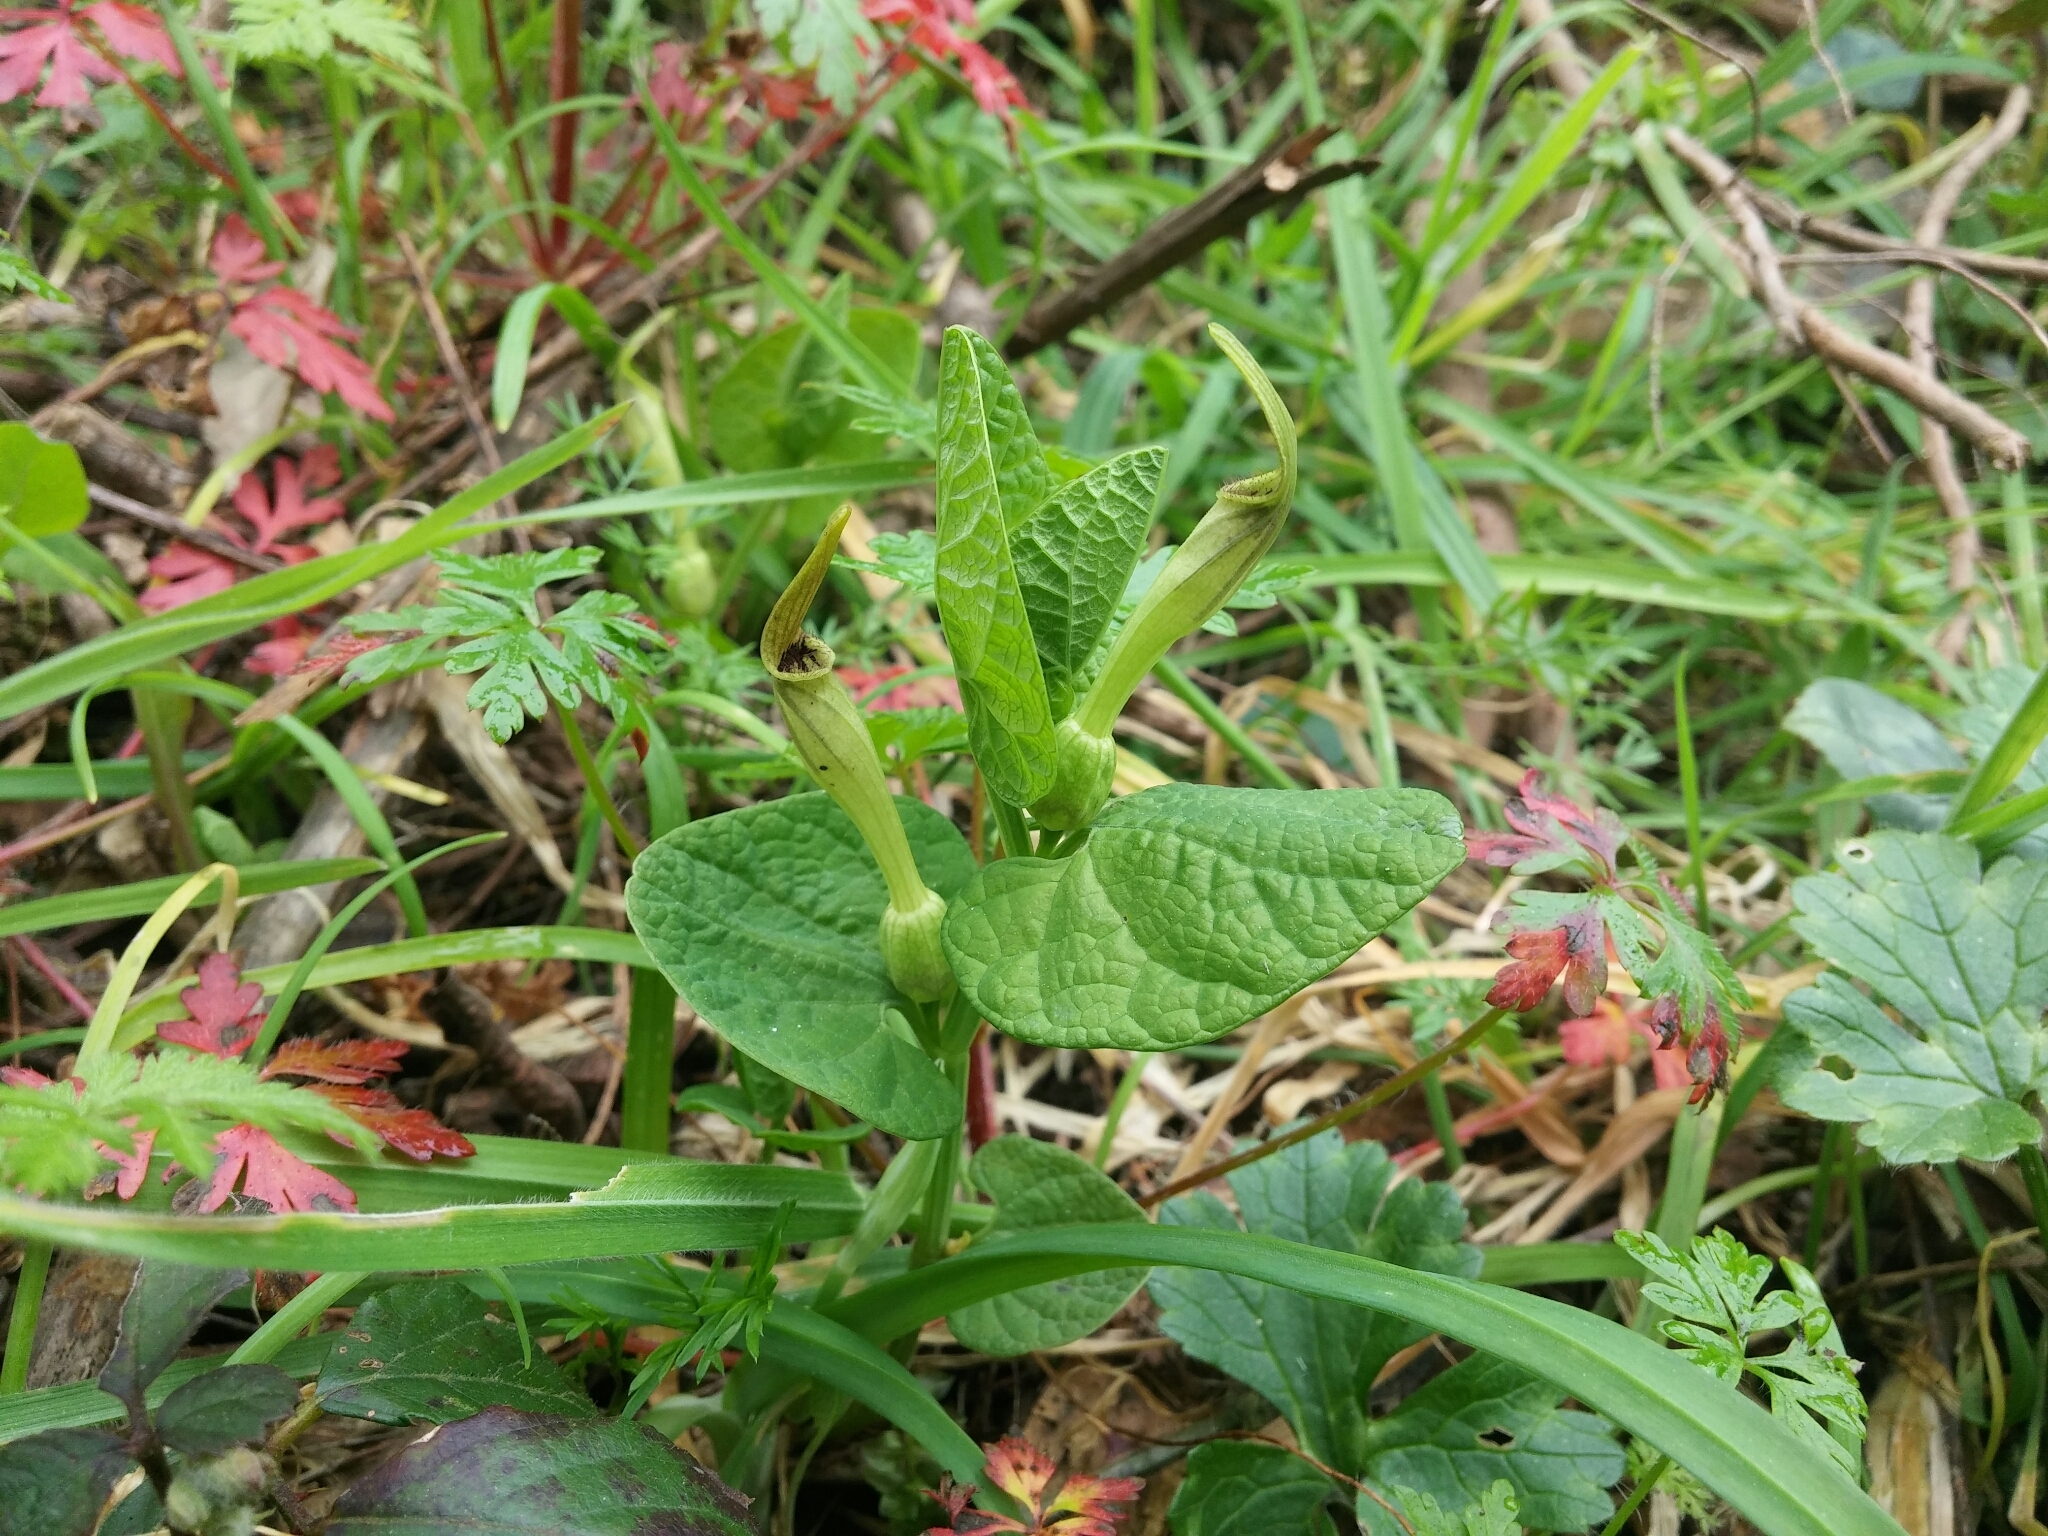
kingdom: Plantae
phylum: Tracheophyta
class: Magnoliopsida
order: Piperales
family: Aristolochiaceae
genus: Aristolochia
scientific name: Aristolochia lutea
